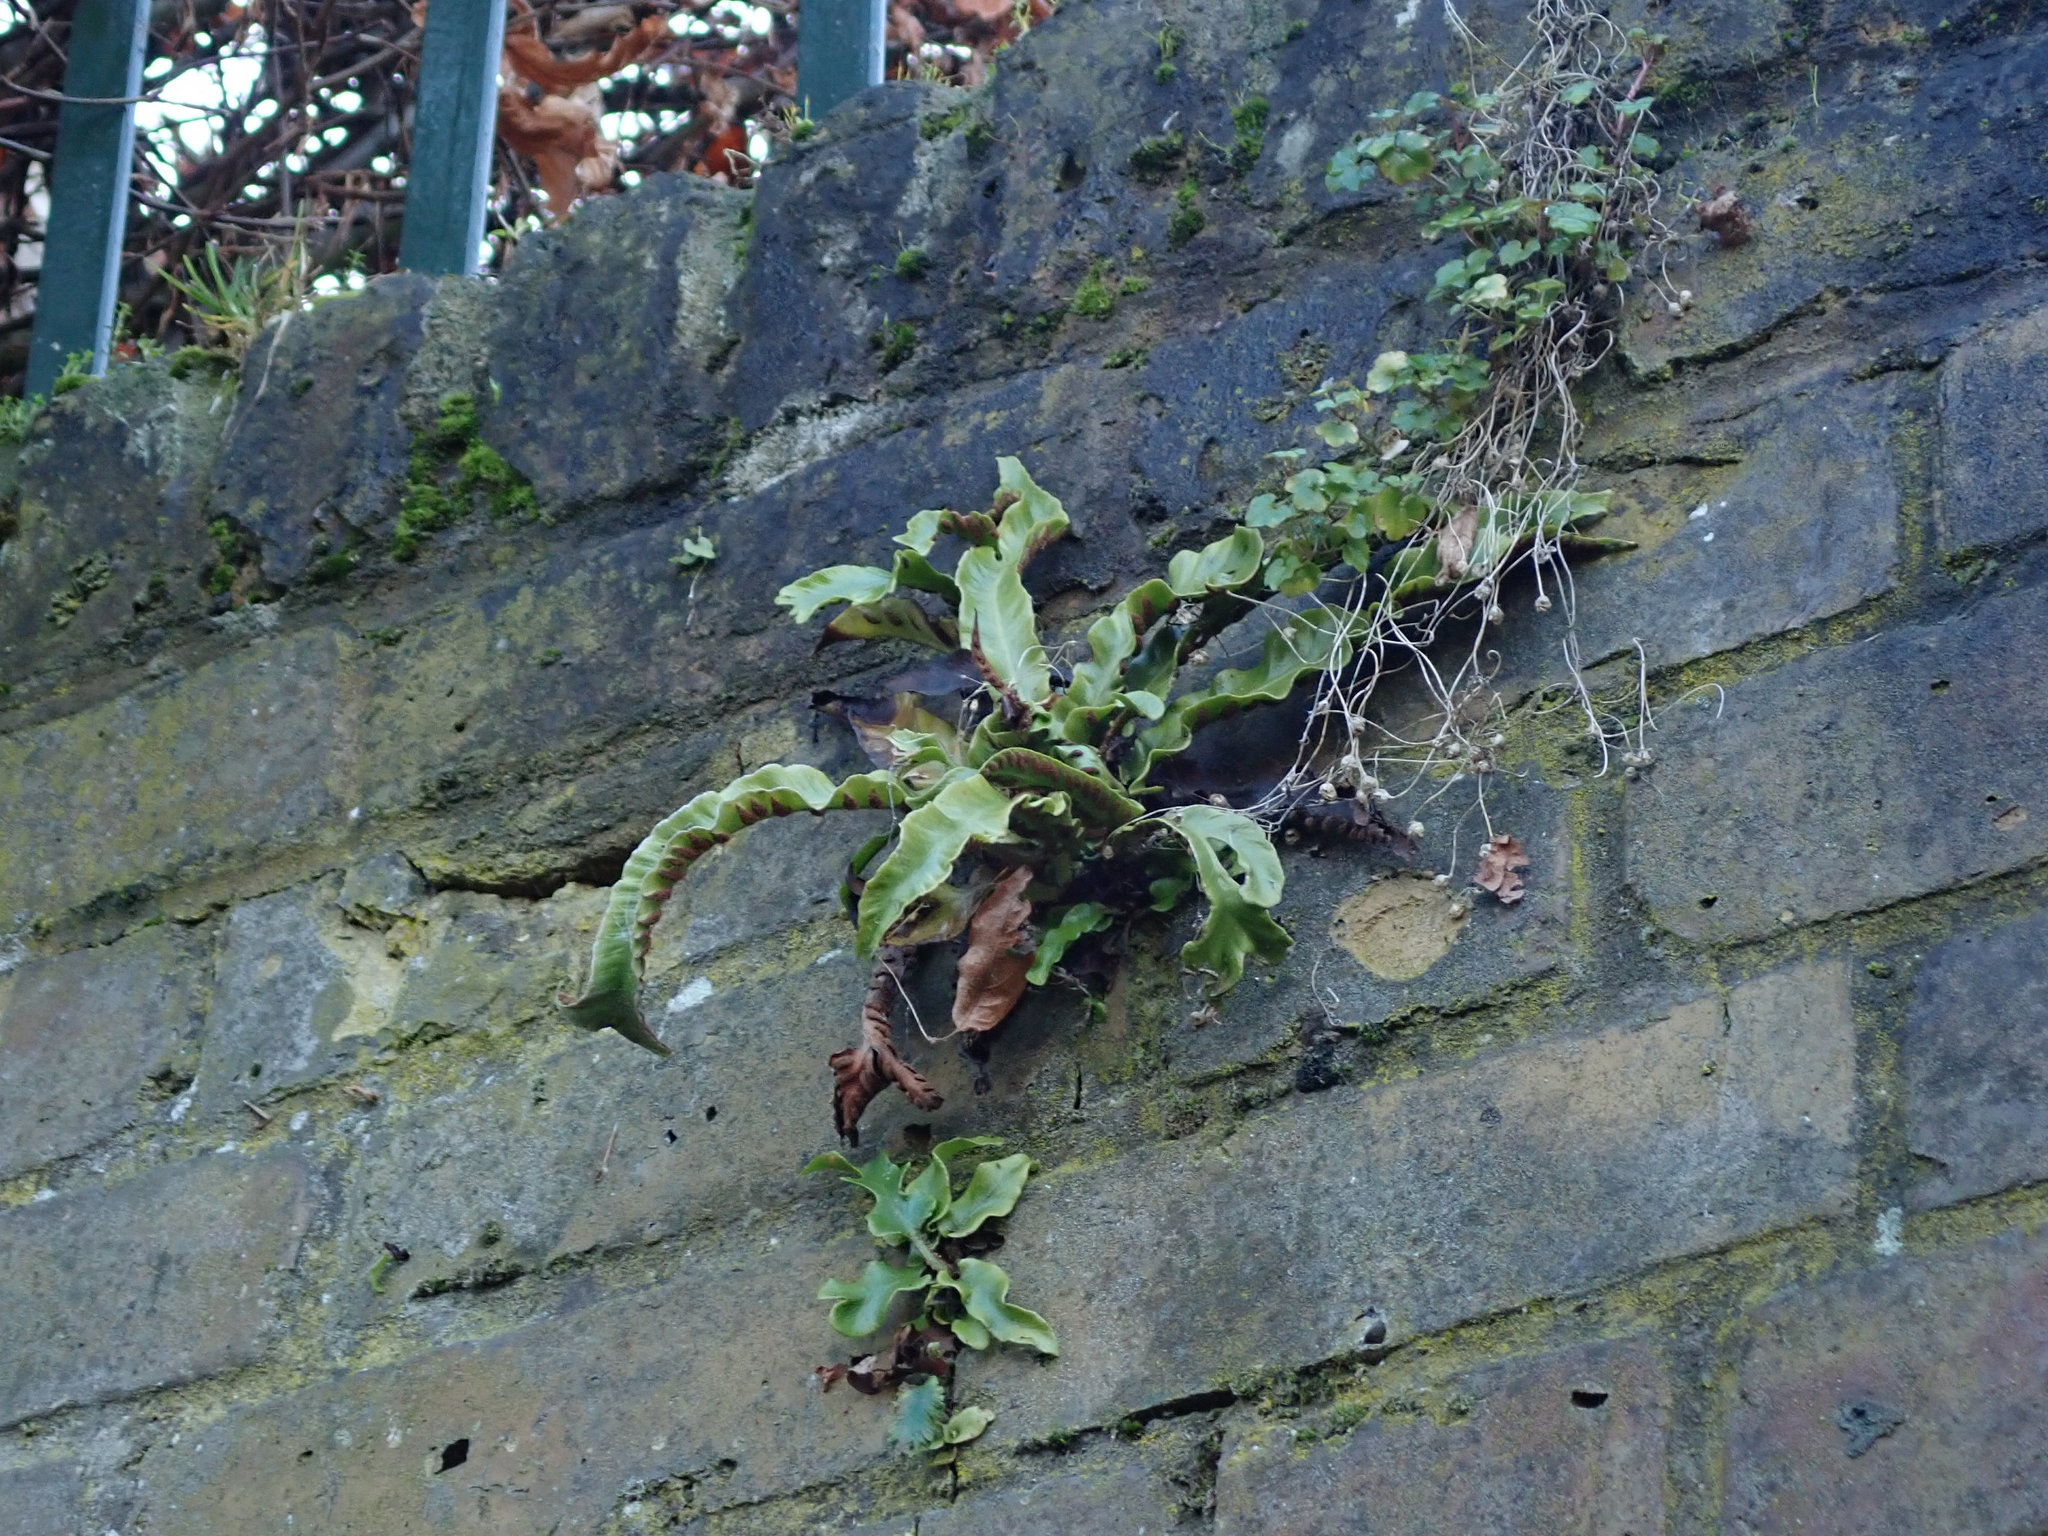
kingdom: Plantae
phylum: Tracheophyta
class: Polypodiopsida
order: Polypodiales
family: Aspleniaceae
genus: Asplenium
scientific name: Asplenium scolopendrium
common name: Hart's-tongue fern
